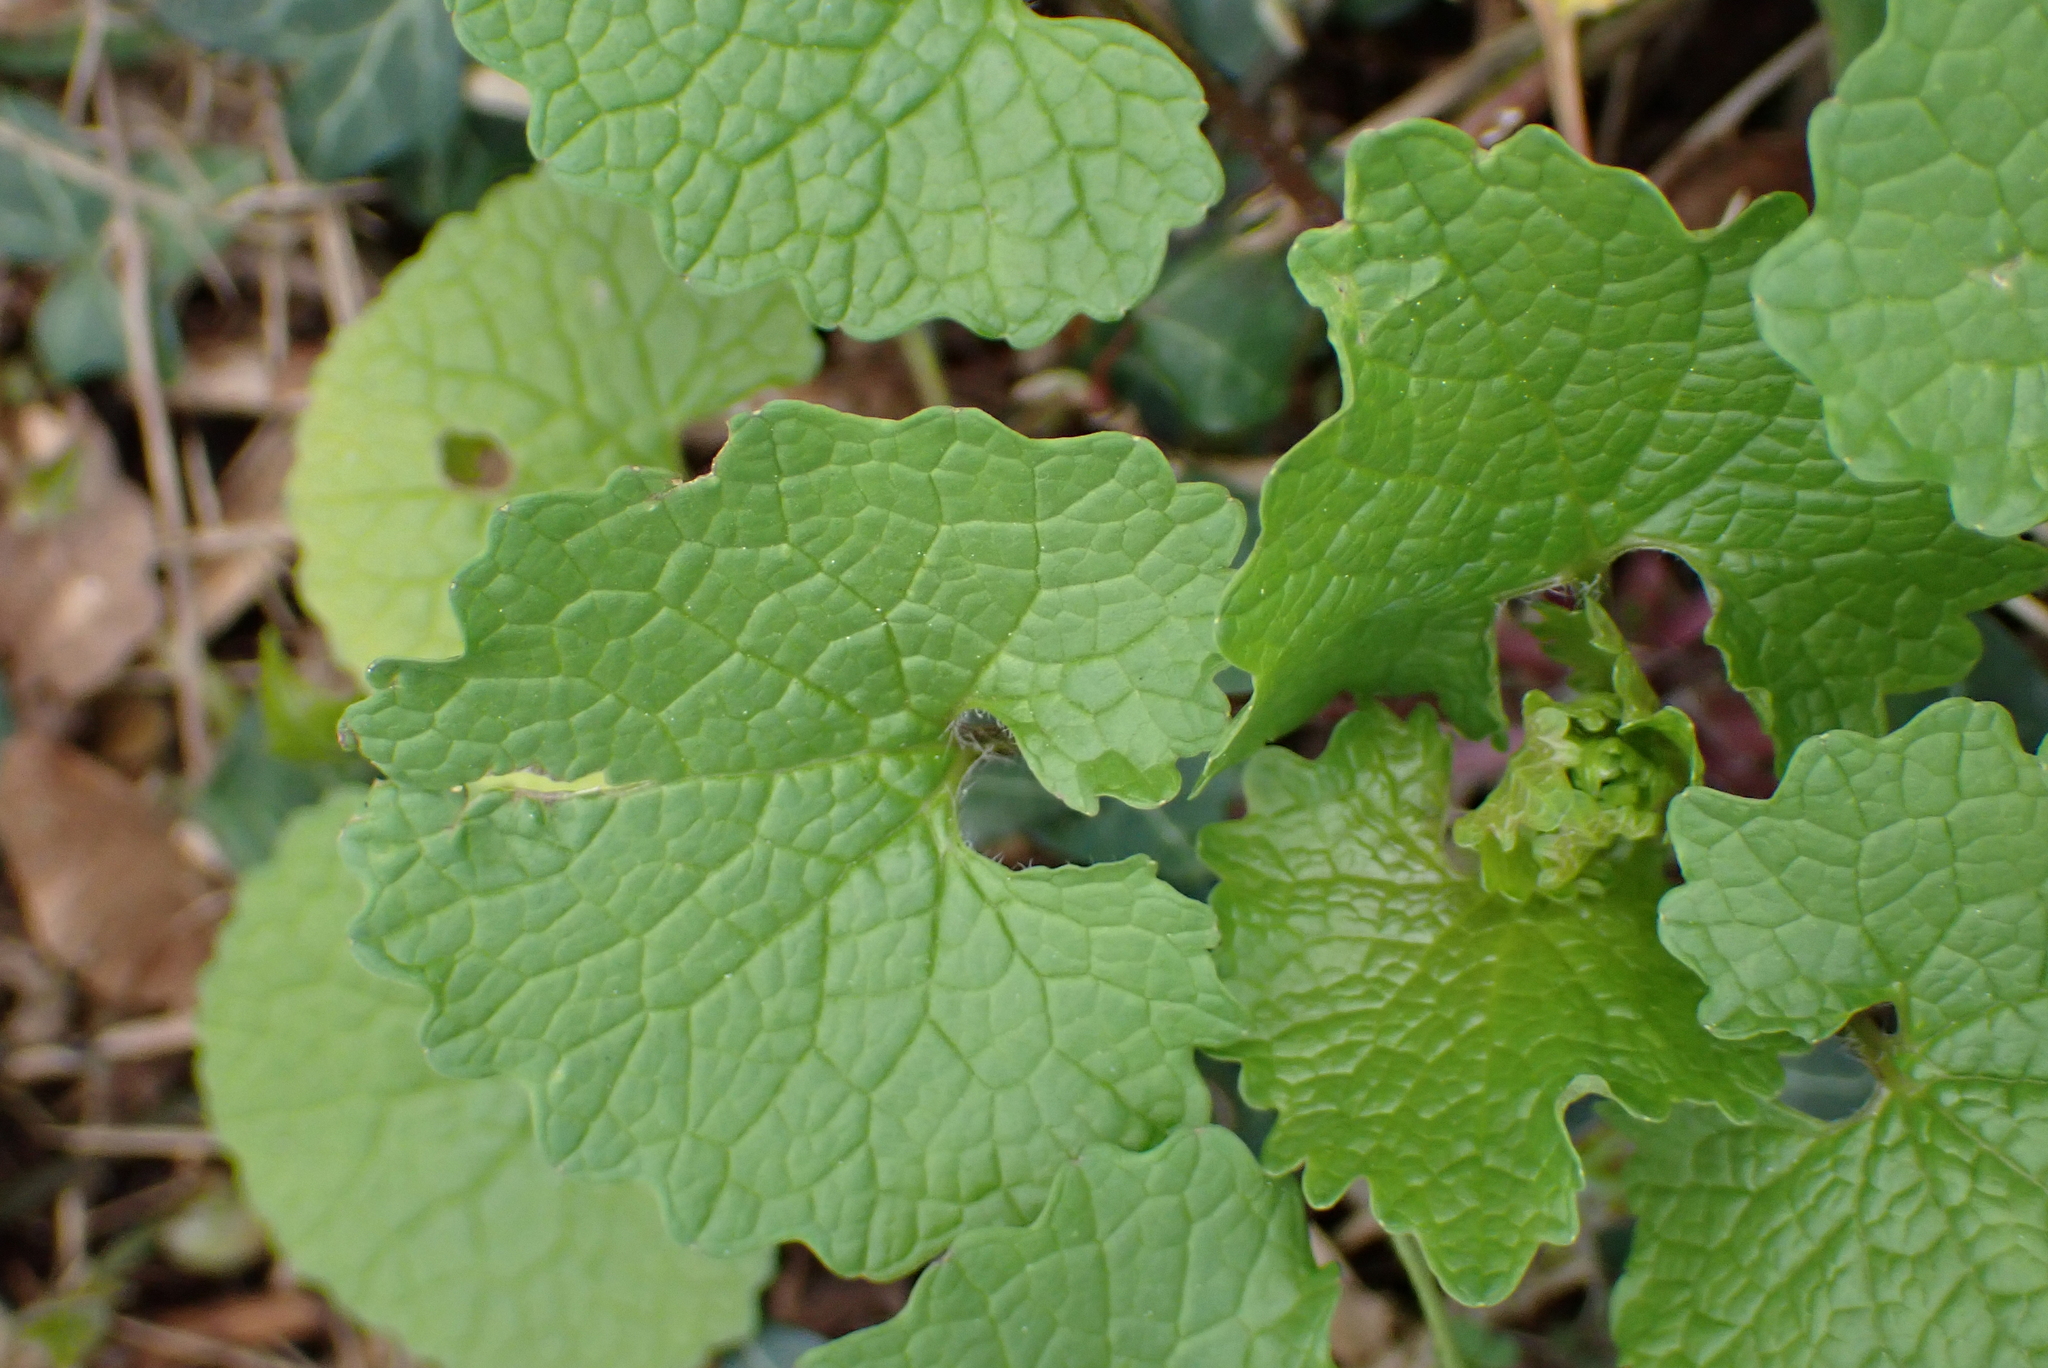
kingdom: Plantae
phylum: Tracheophyta
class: Magnoliopsida
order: Brassicales
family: Brassicaceae
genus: Alliaria
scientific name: Alliaria petiolata
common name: Garlic mustard
